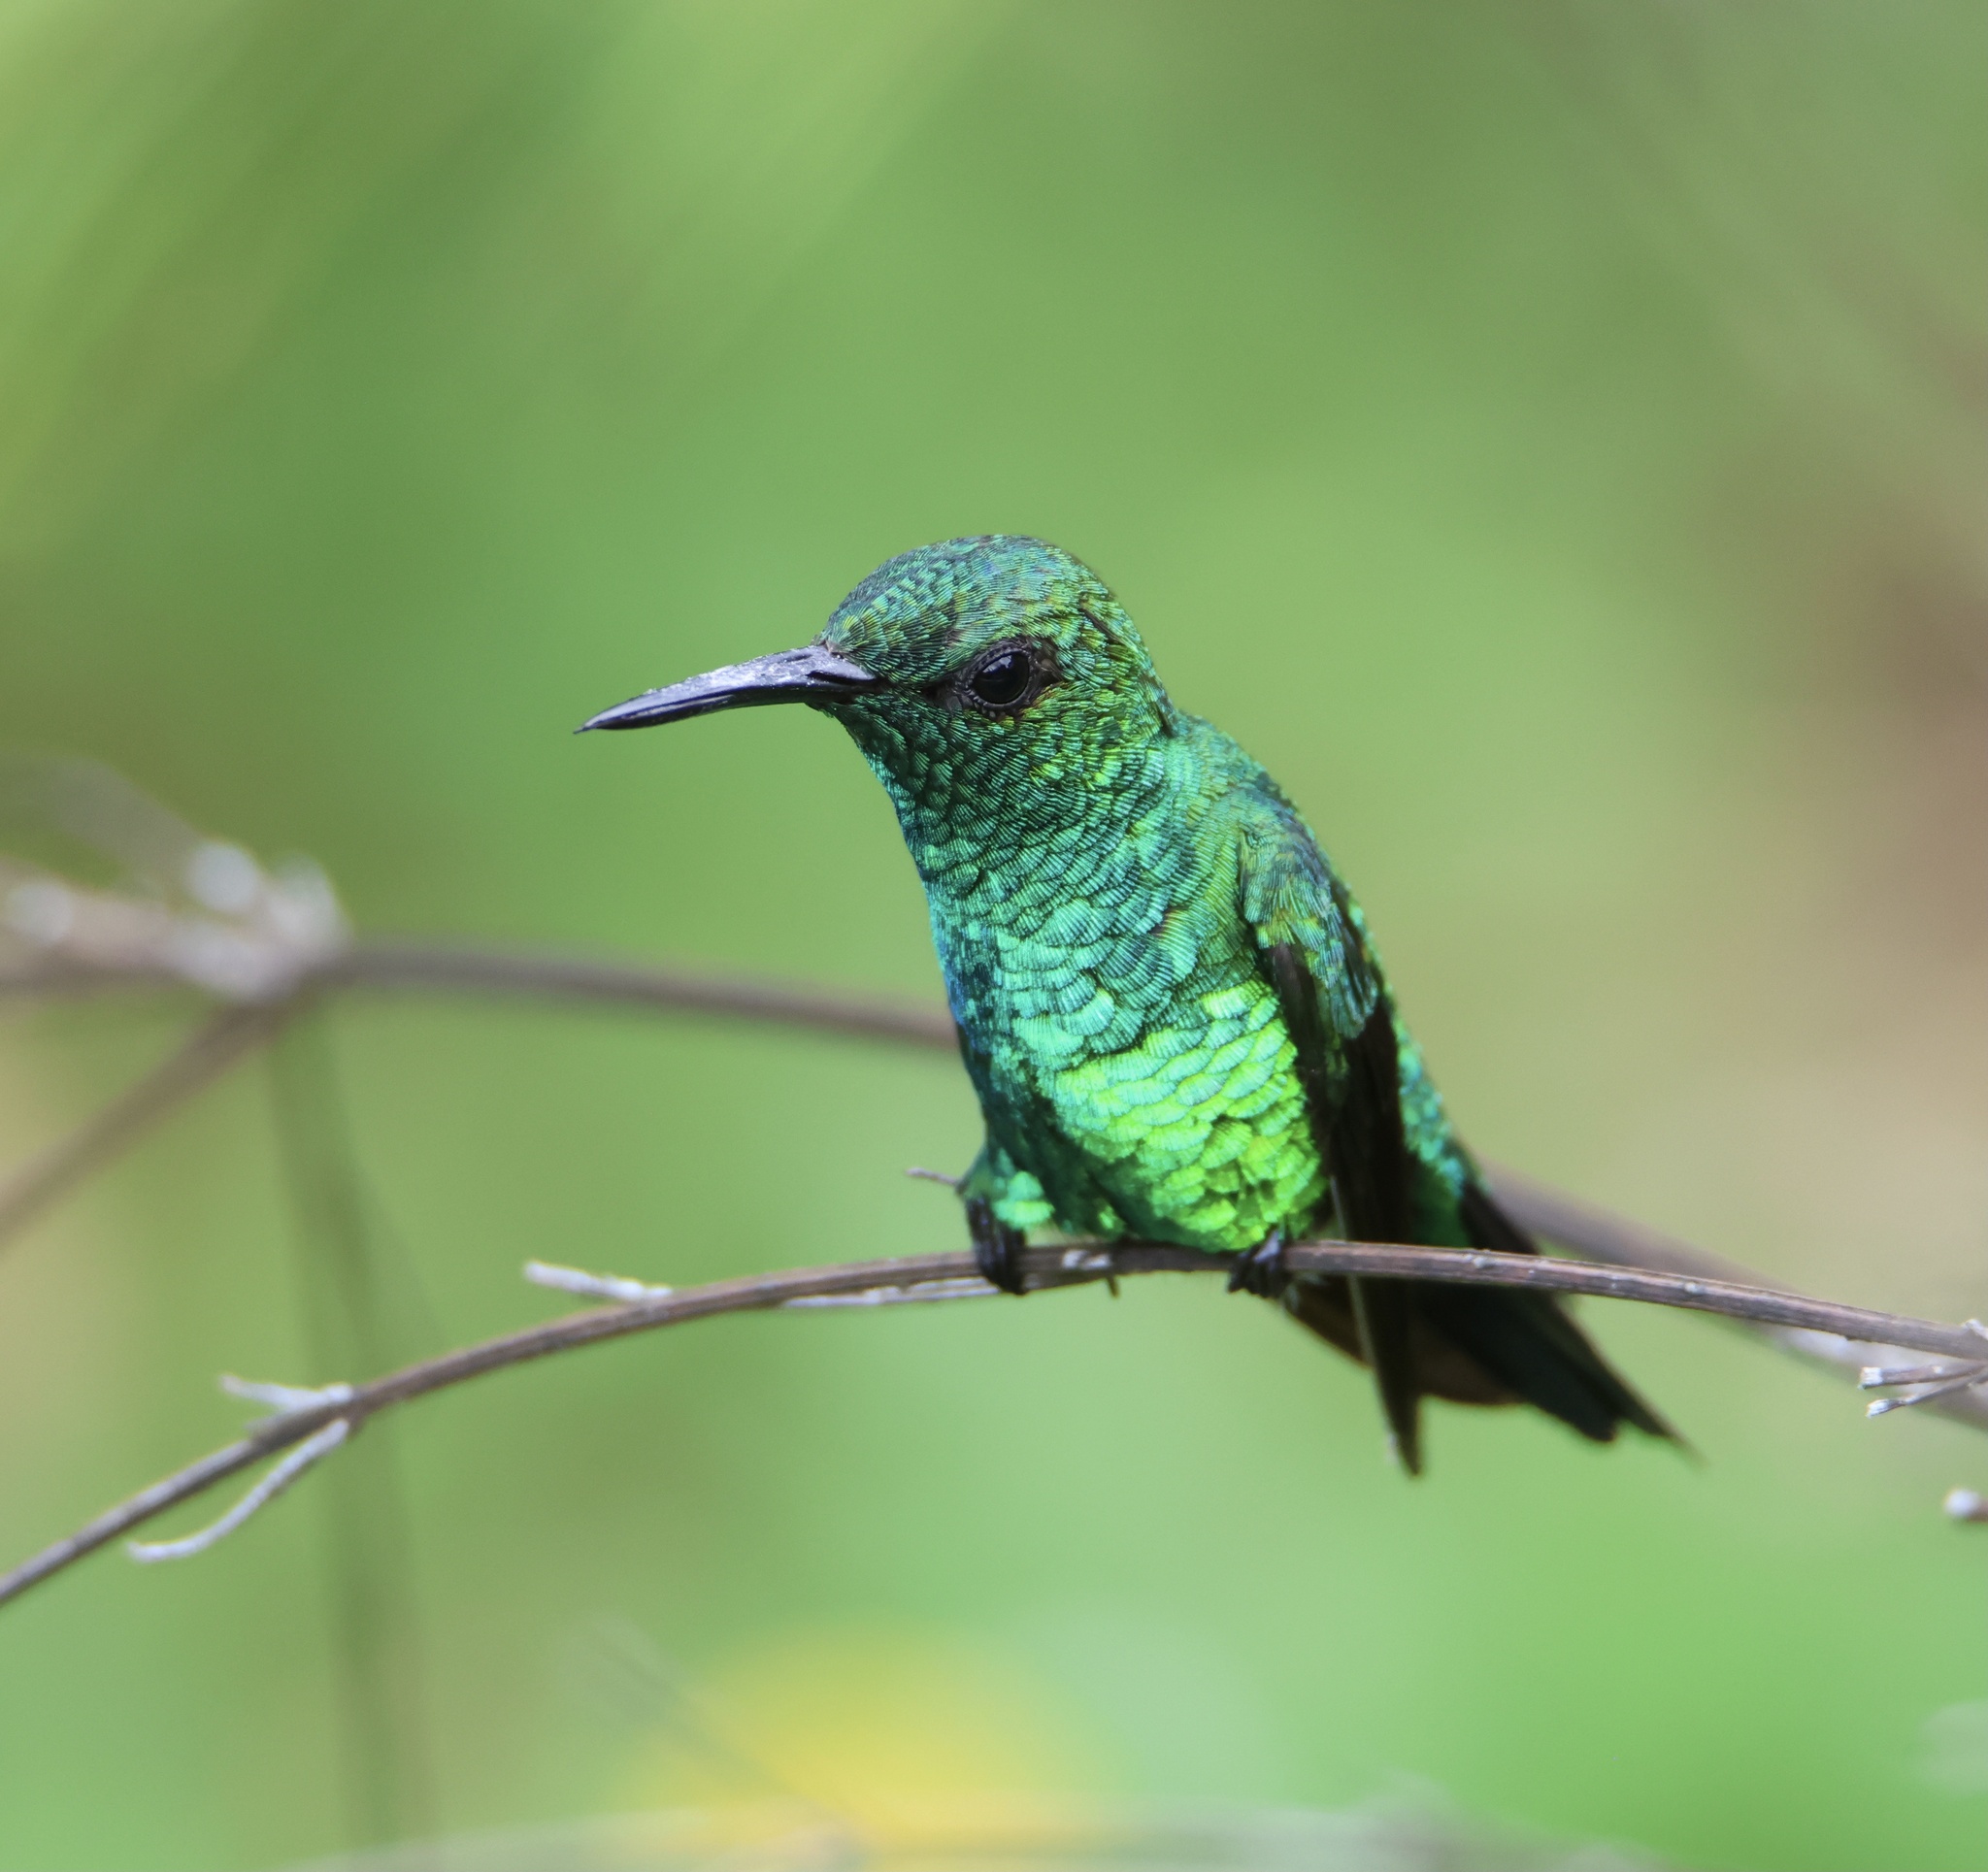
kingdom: Animalia
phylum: Chordata
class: Aves
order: Apodiformes
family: Trochilidae
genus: Chlorostilbon
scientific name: Chlorostilbon assimilis
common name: Garden emerald
